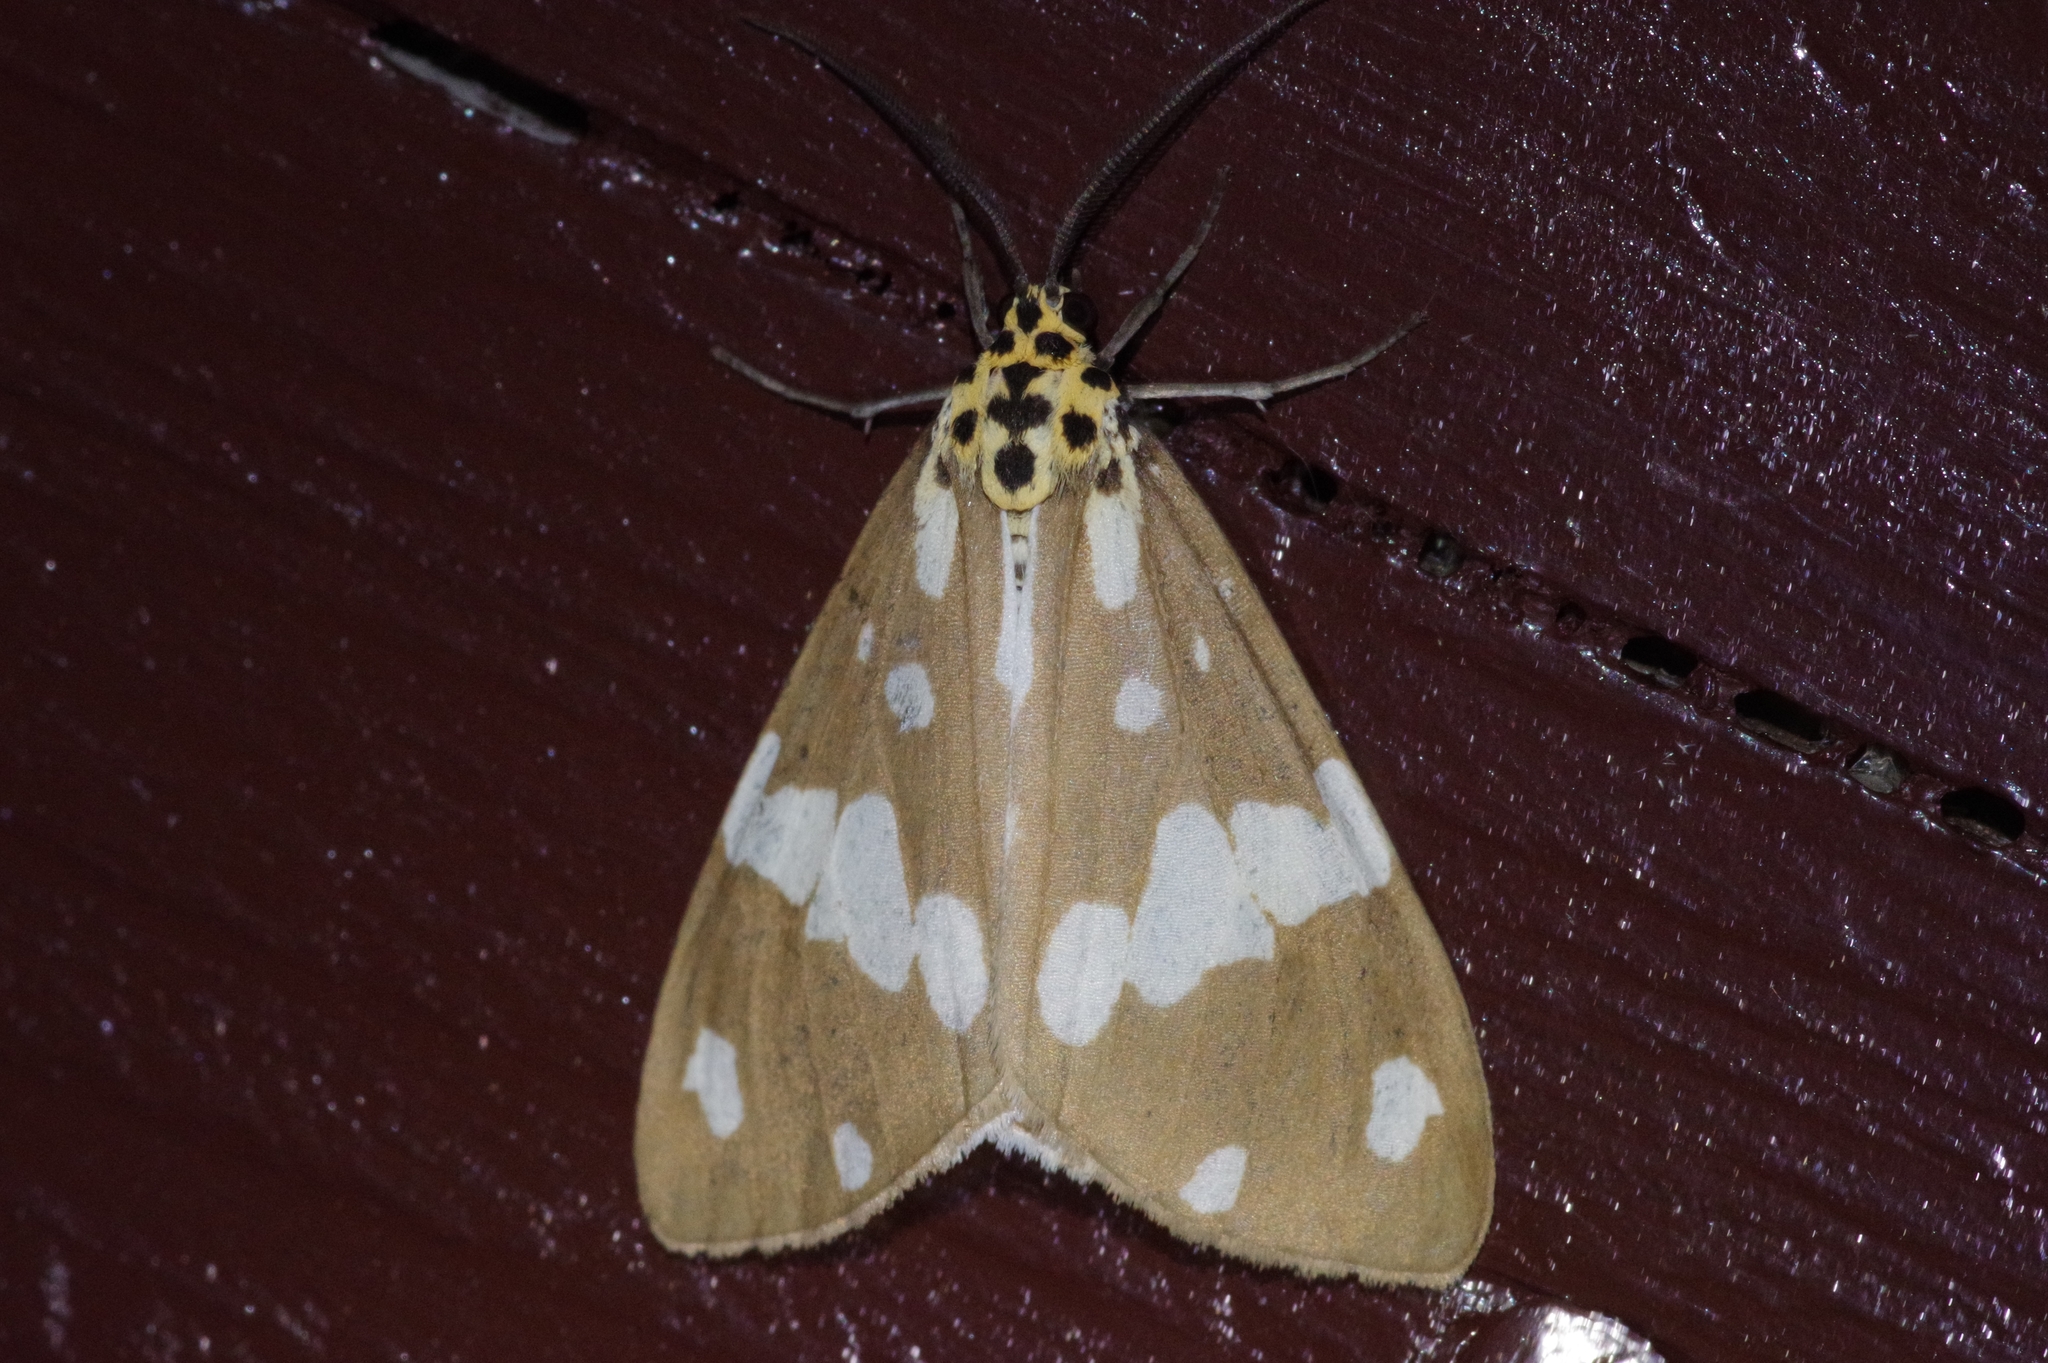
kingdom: Animalia
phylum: Arthropoda
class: Insecta
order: Lepidoptera
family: Erebidae
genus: Utetheisa
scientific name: Utetheisa inconstans
